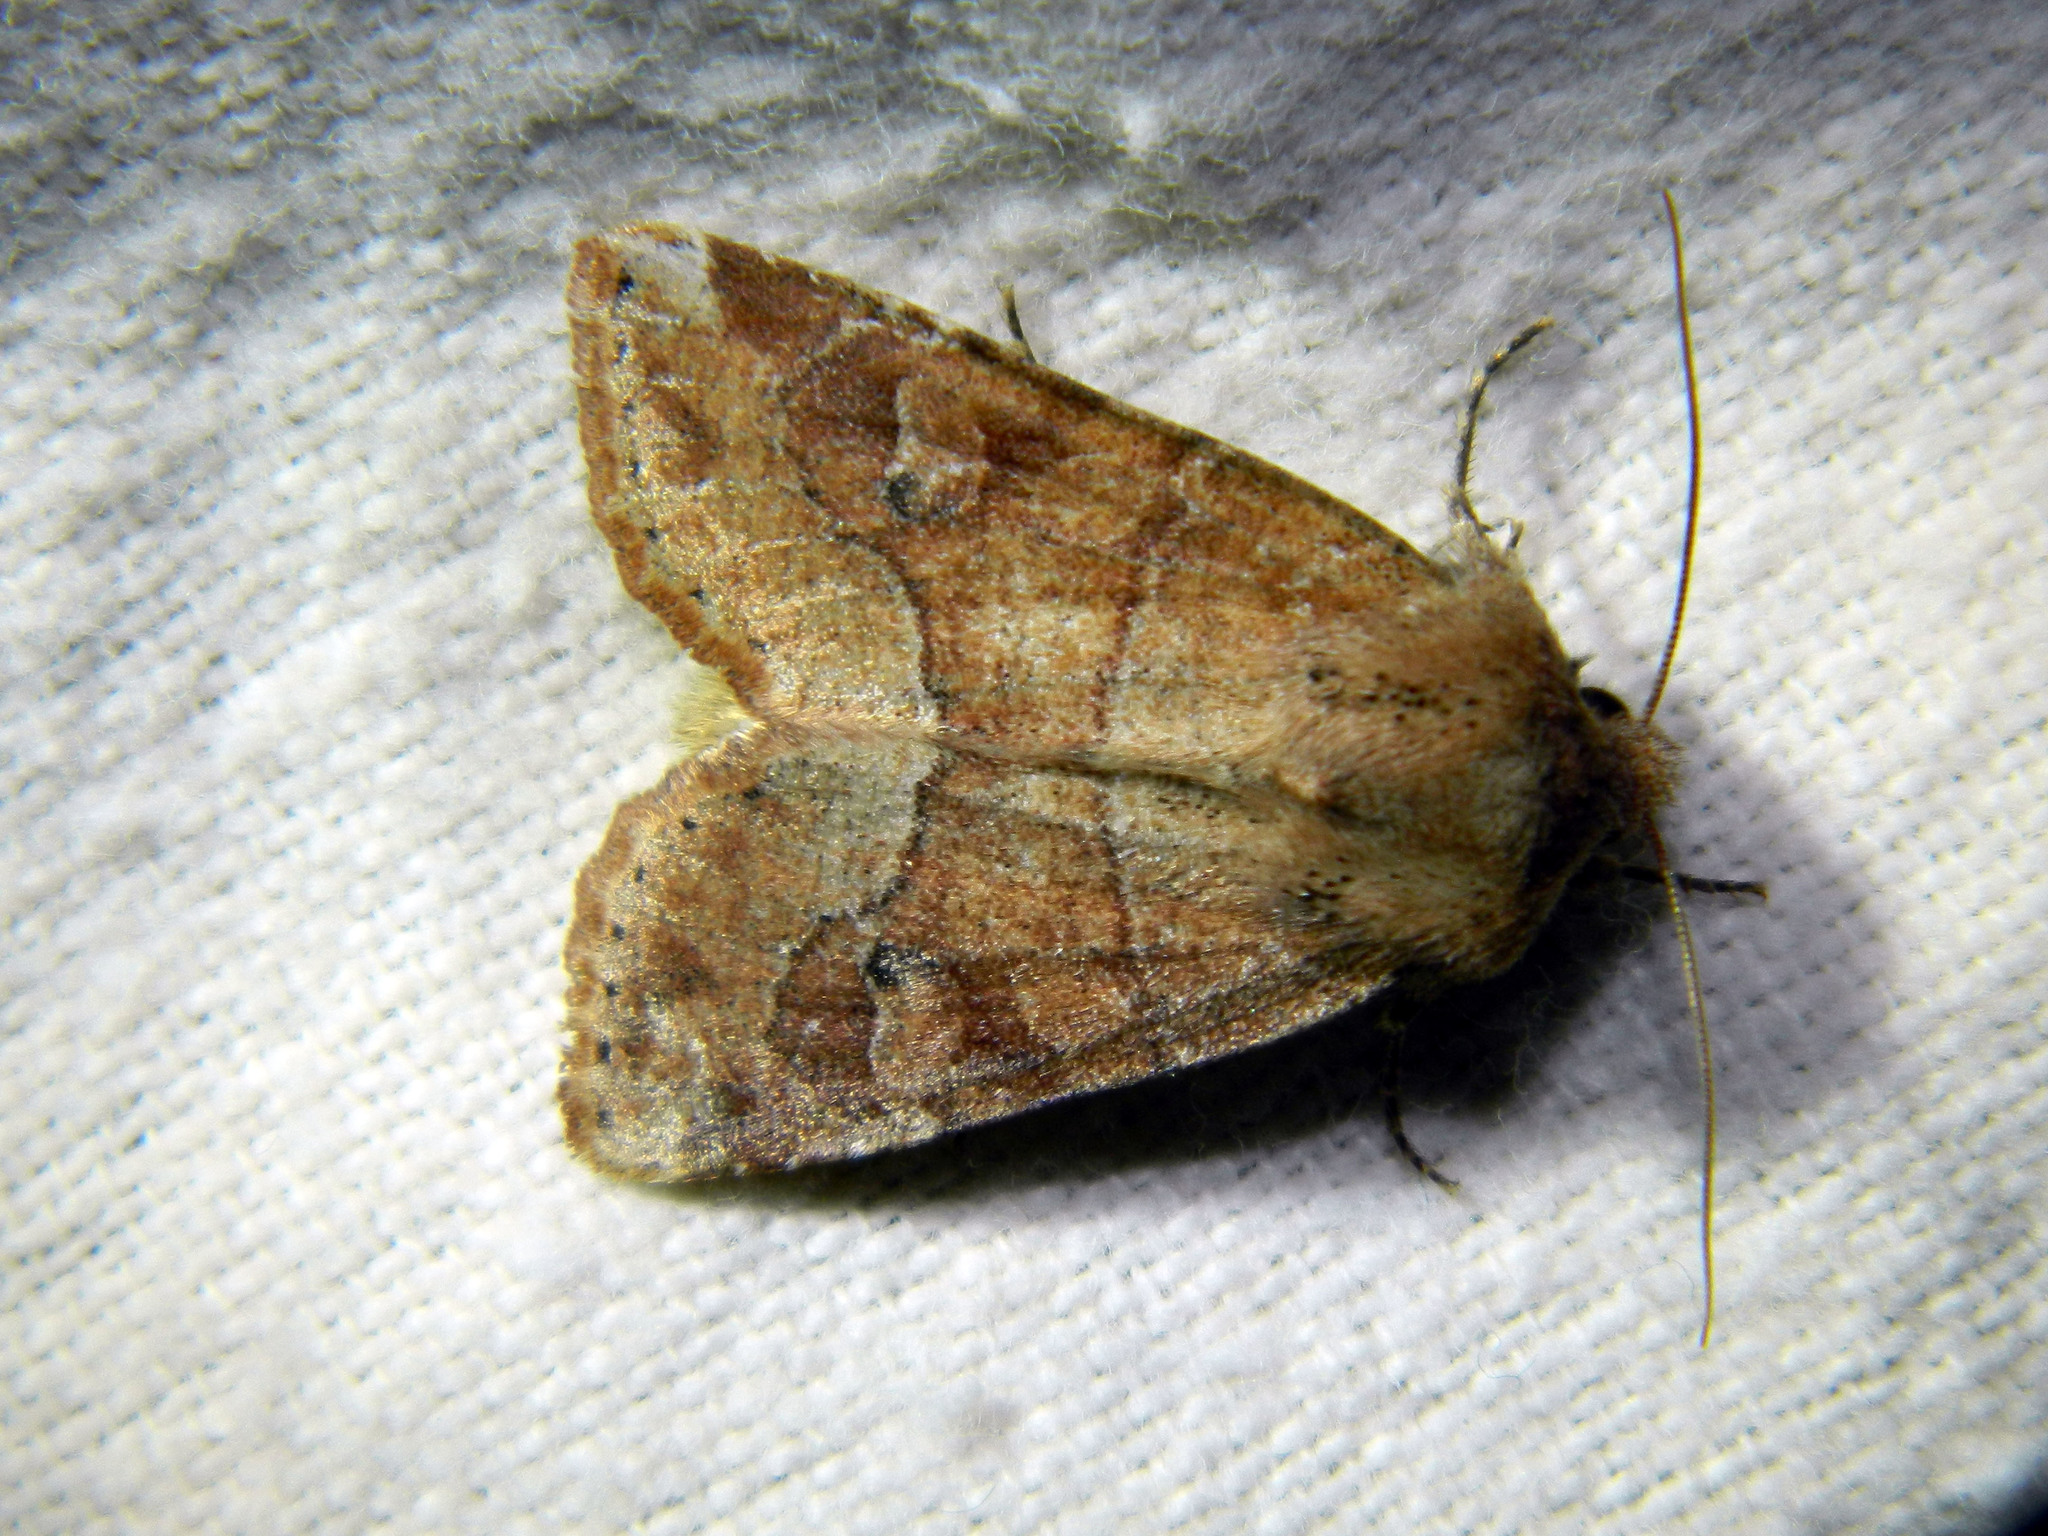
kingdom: Animalia
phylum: Arthropoda
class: Insecta
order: Lepidoptera
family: Noctuidae
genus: Crocigrapha
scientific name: Crocigrapha normani
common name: Norman's quaker
